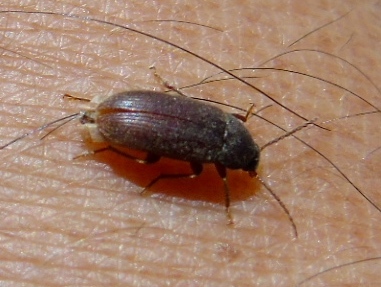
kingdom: Animalia
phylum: Arthropoda
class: Insecta
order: Coleoptera
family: Tenebrionidae
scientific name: Tenebrionidae
